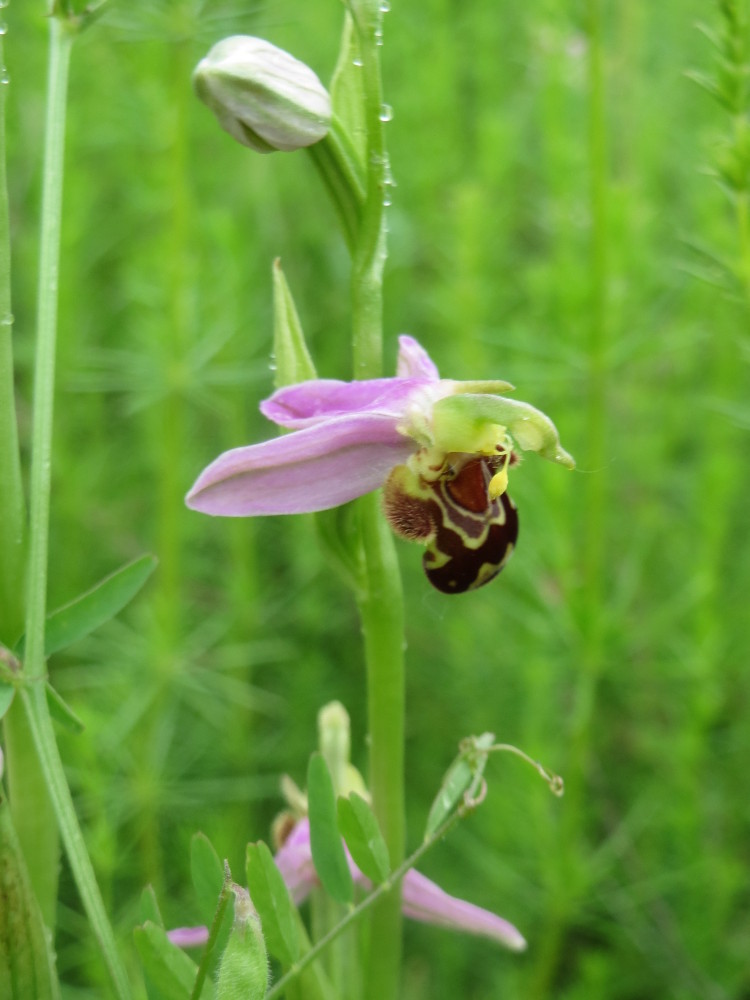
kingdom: Plantae
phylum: Tracheophyta
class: Liliopsida
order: Asparagales
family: Orchidaceae
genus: Ophrys
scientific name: Ophrys apifera
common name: Bee orchid
